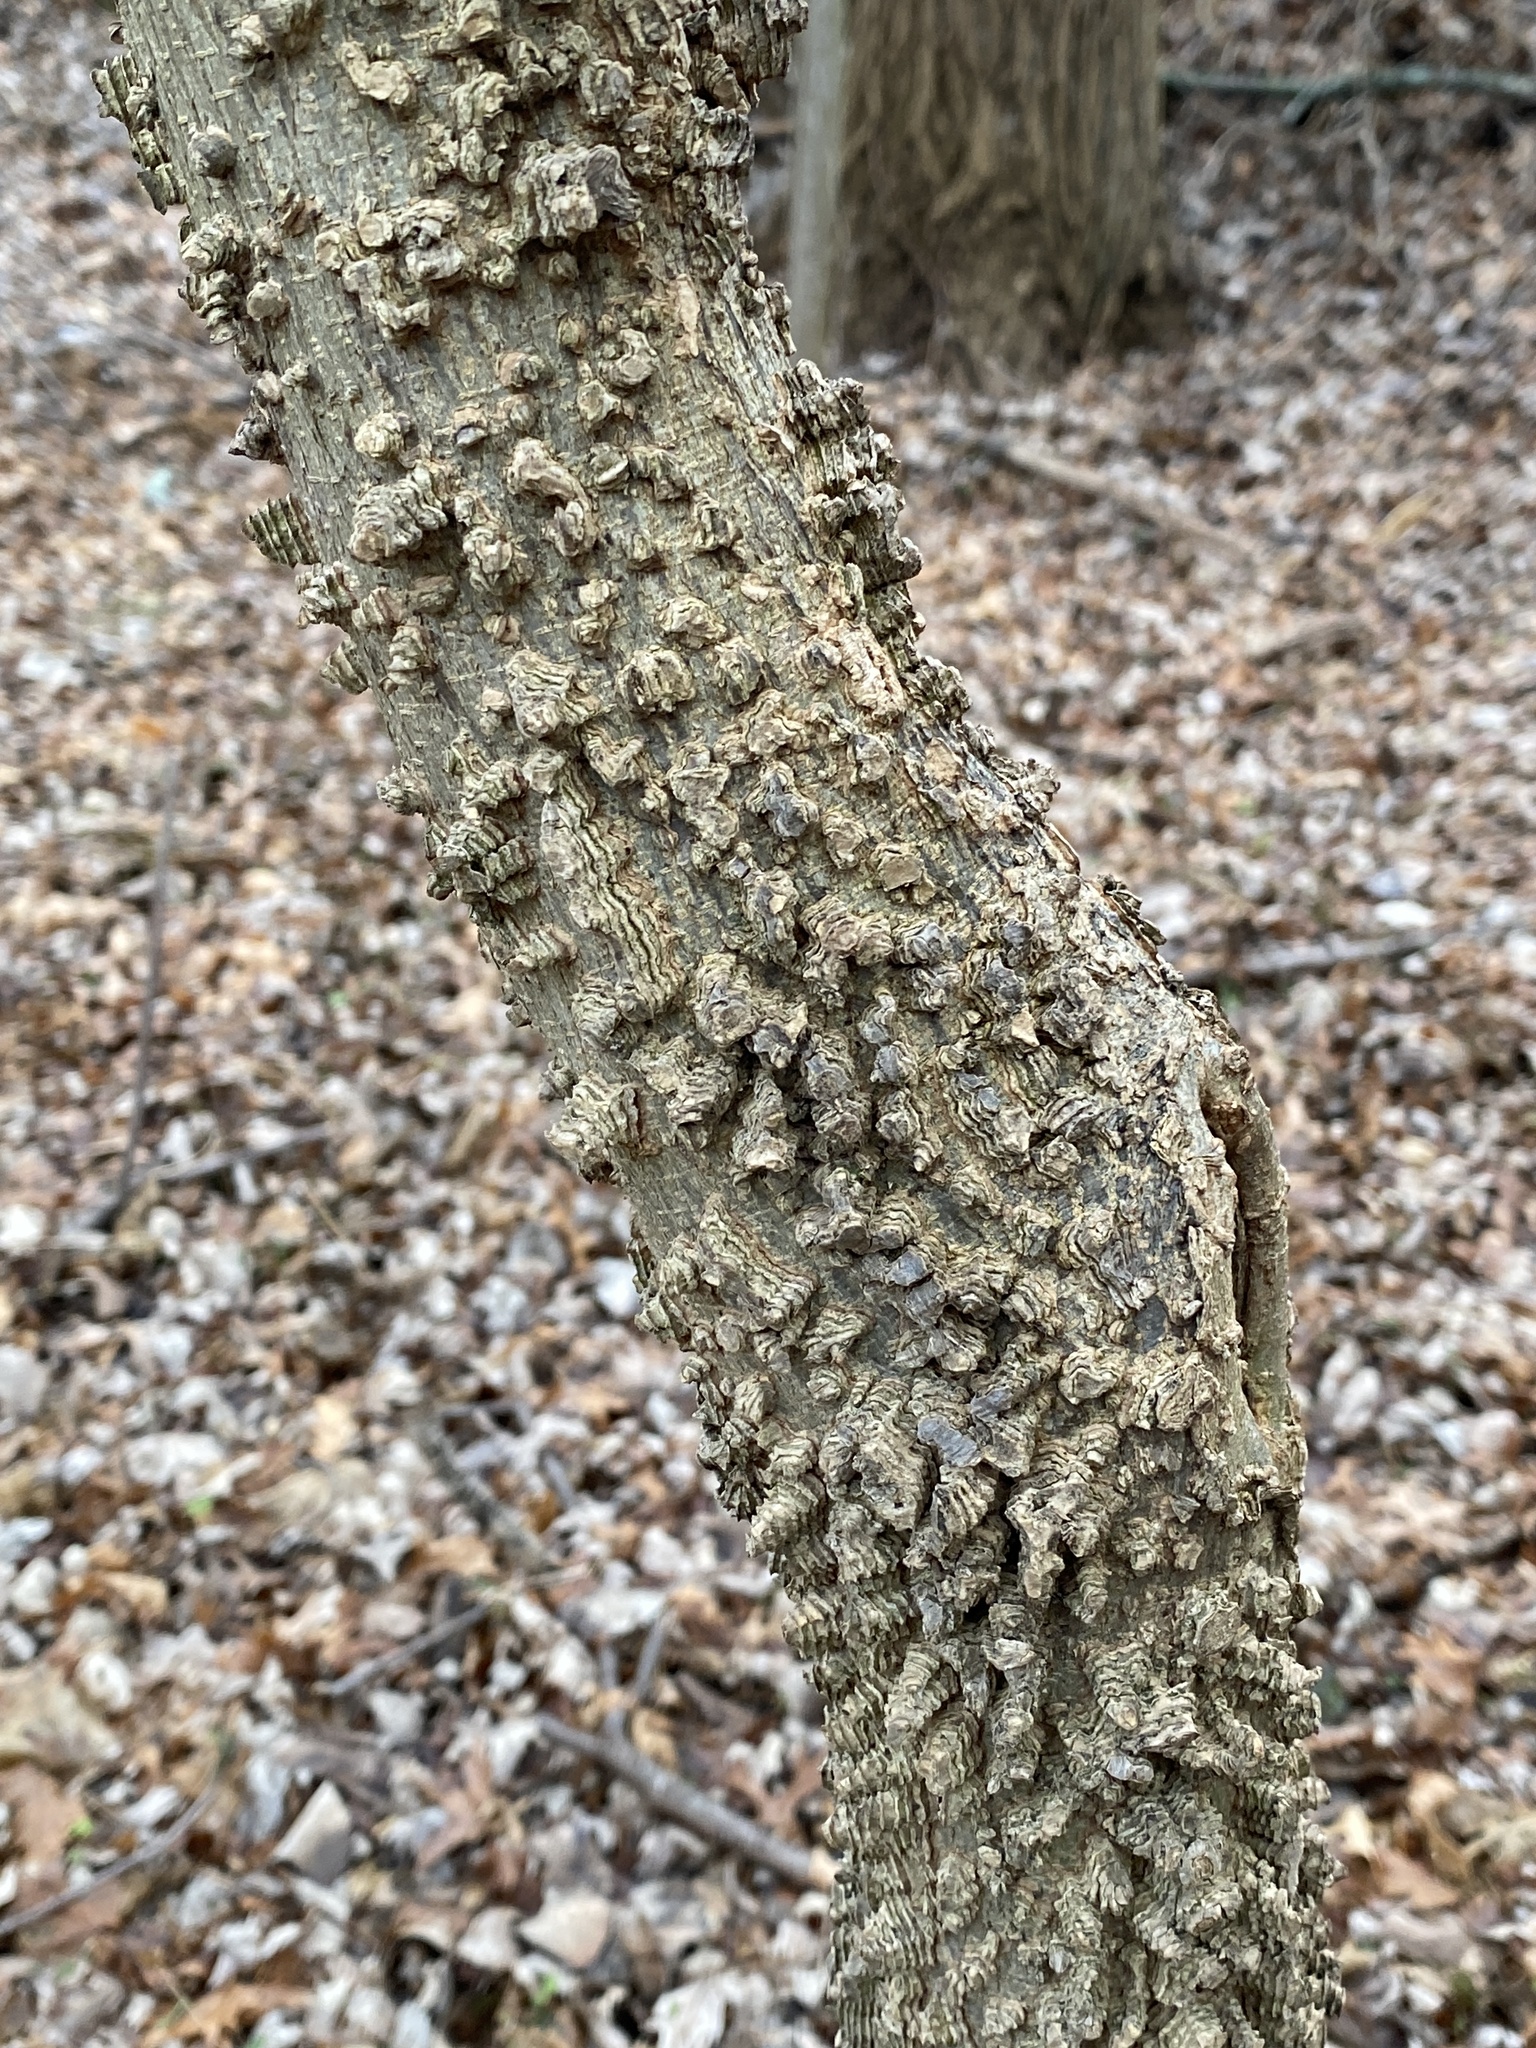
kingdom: Plantae
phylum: Tracheophyta
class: Magnoliopsida
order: Rosales
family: Cannabaceae
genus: Celtis
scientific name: Celtis occidentalis
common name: Common hackberry
